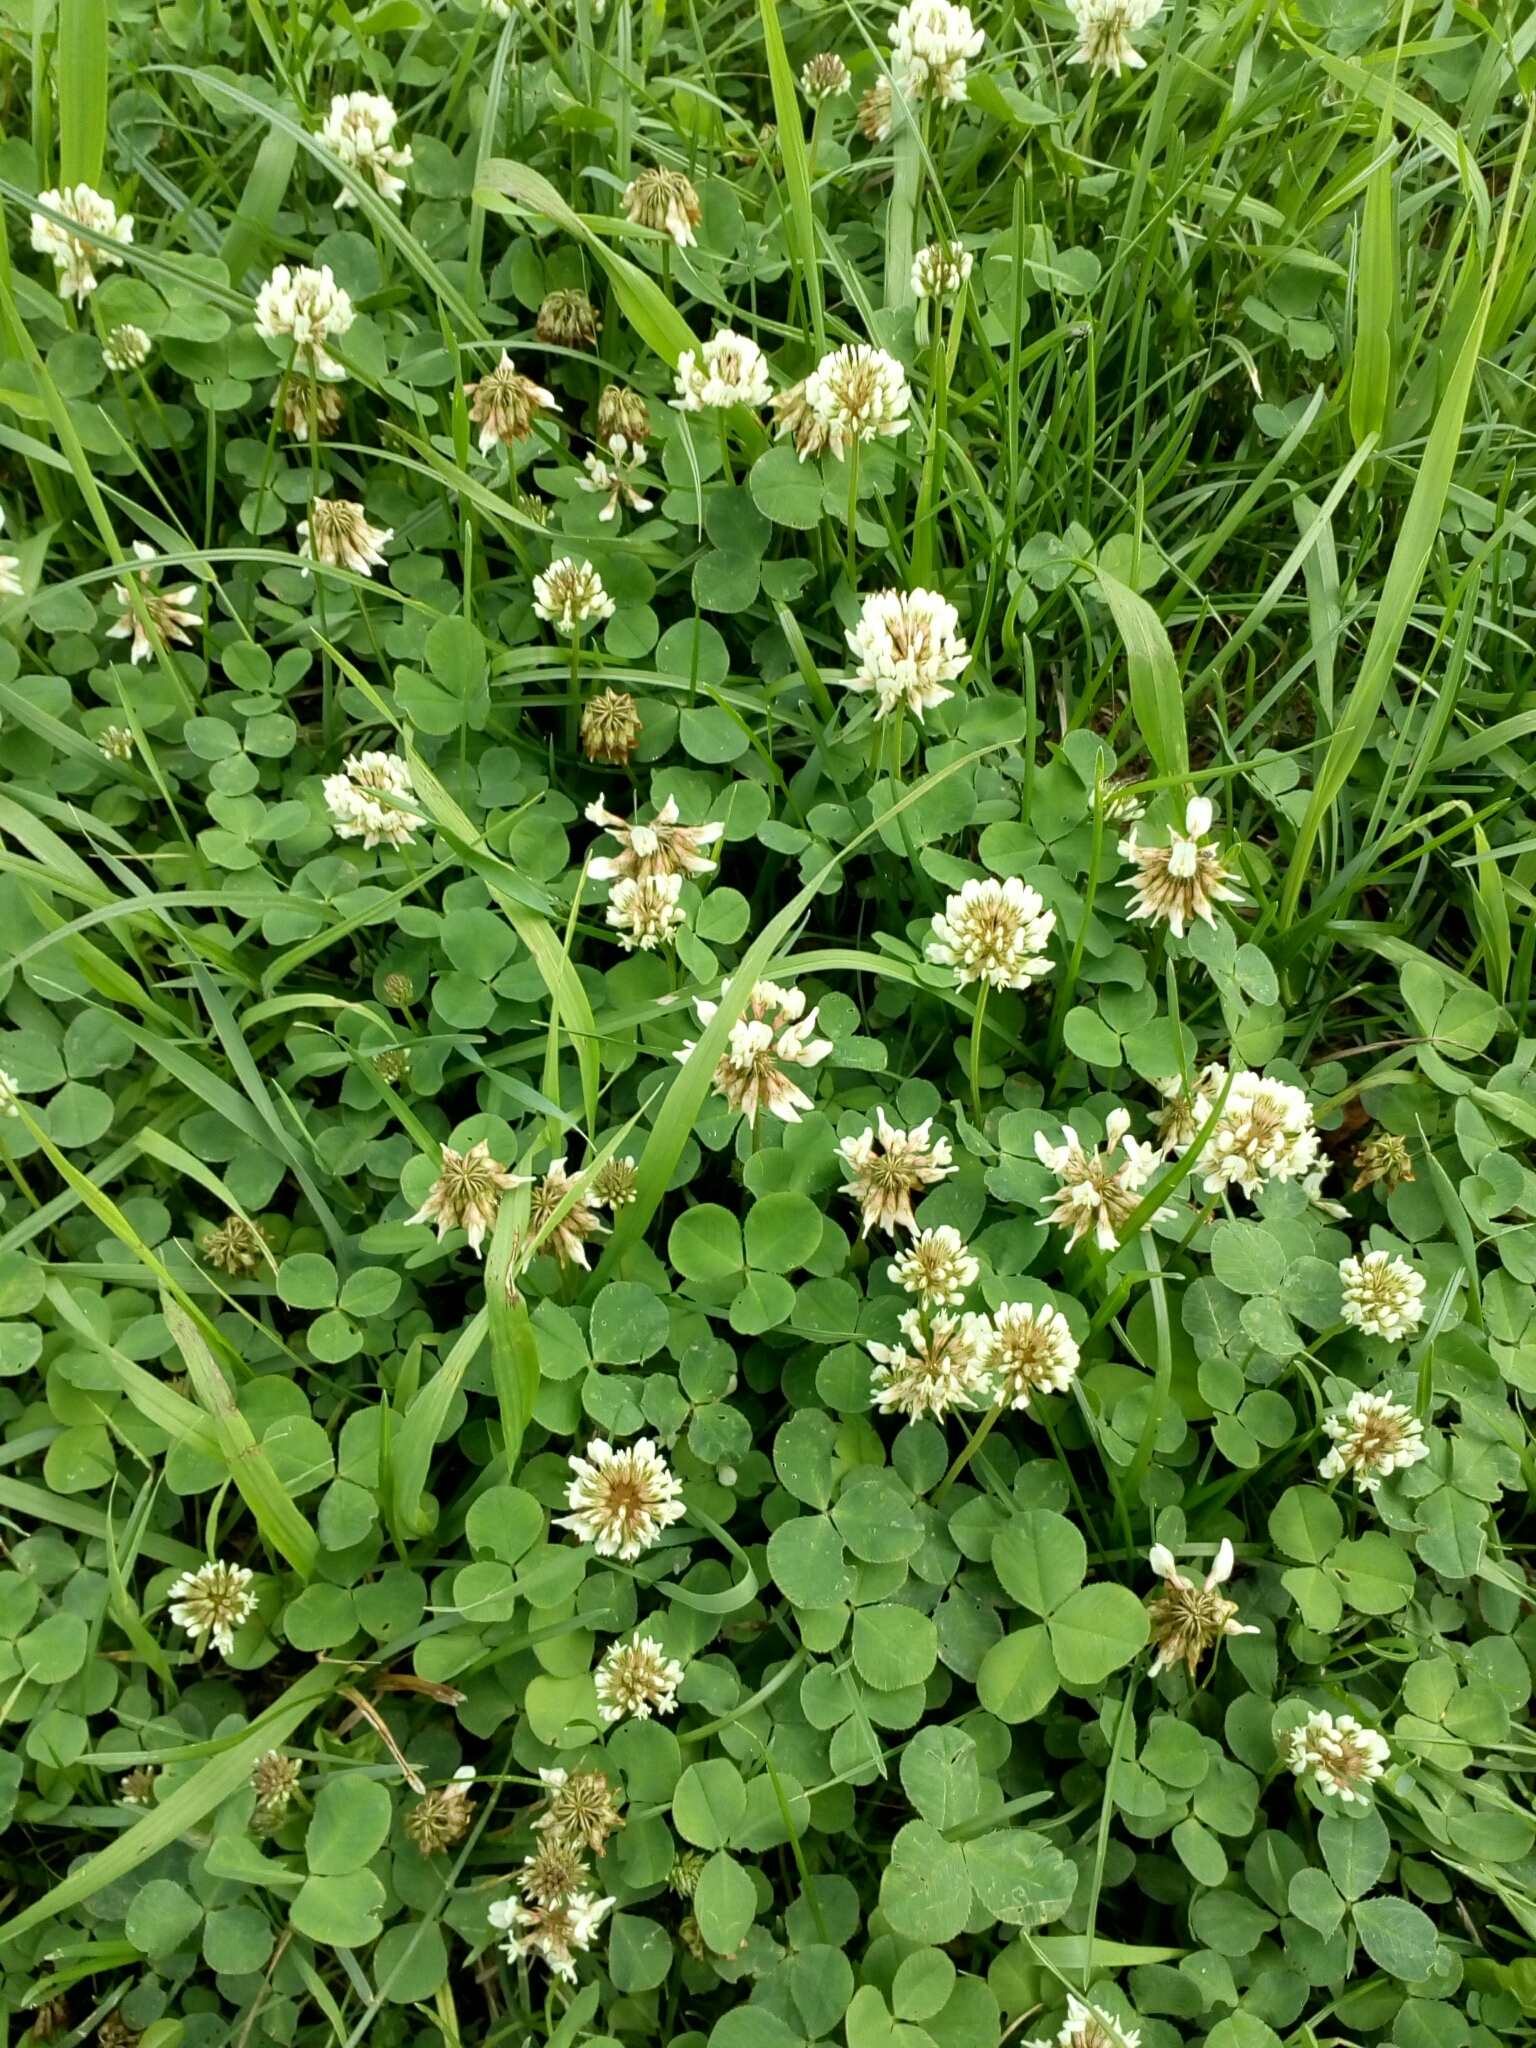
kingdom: Plantae
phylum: Tracheophyta
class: Magnoliopsida
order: Fabales
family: Fabaceae
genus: Trifolium
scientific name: Trifolium repens
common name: White clover
